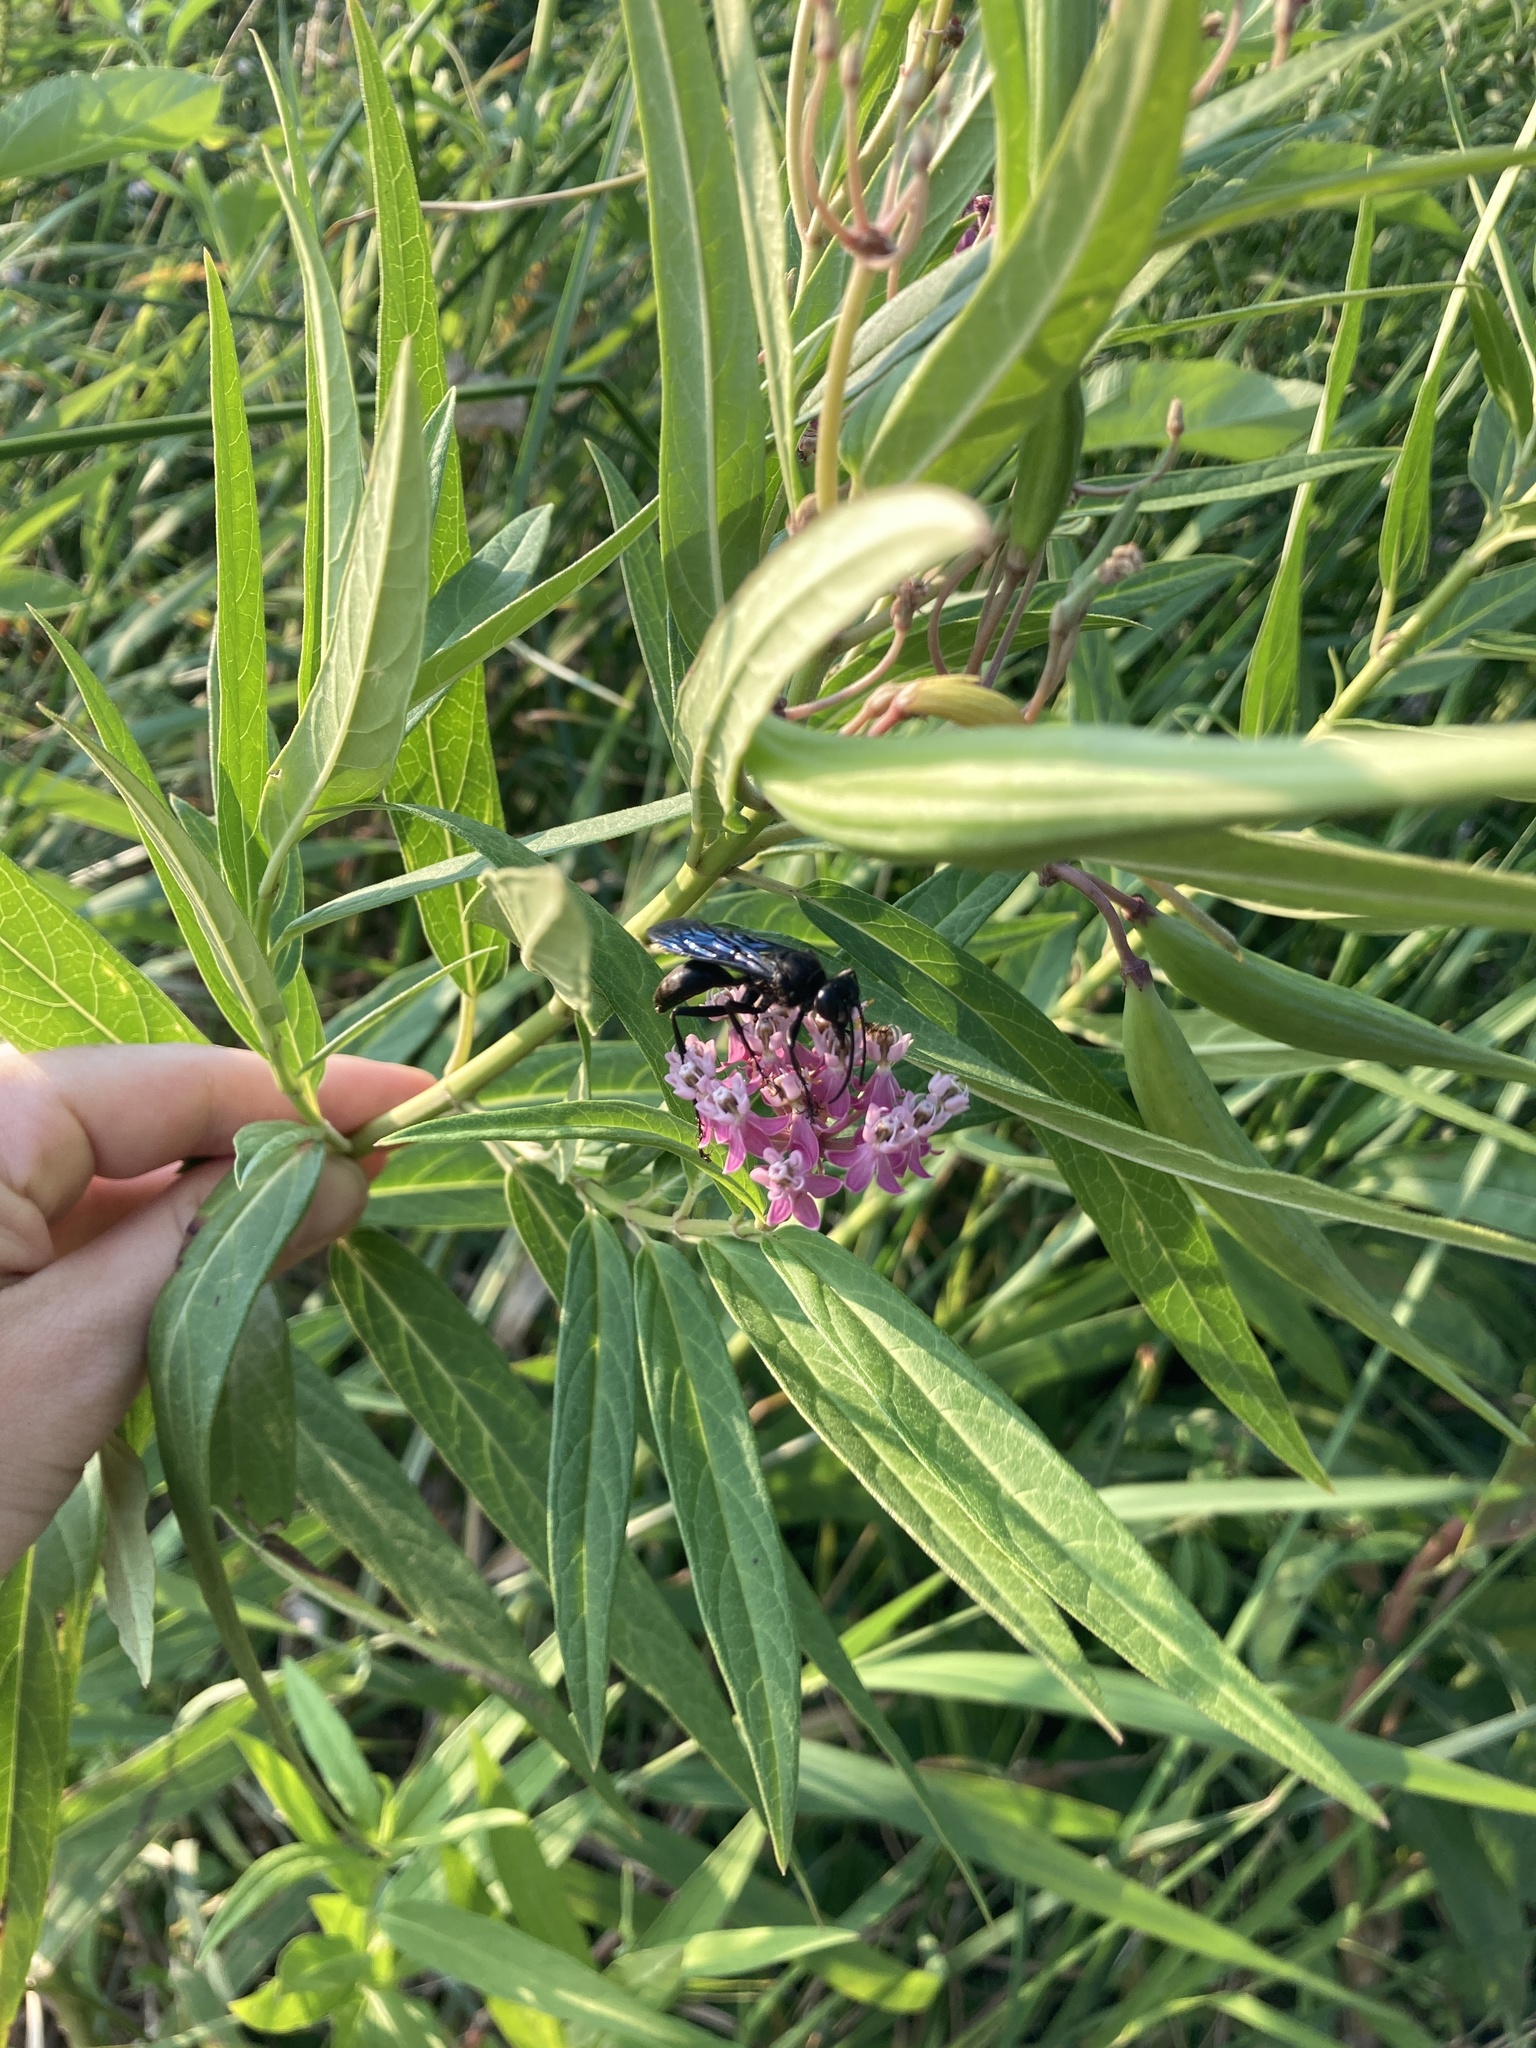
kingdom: Animalia
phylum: Arthropoda
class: Insecta
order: Hymenoptera
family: Sphecidae
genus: Sphex
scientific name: Sphex pensylvanicus
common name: Great black digger wasp
